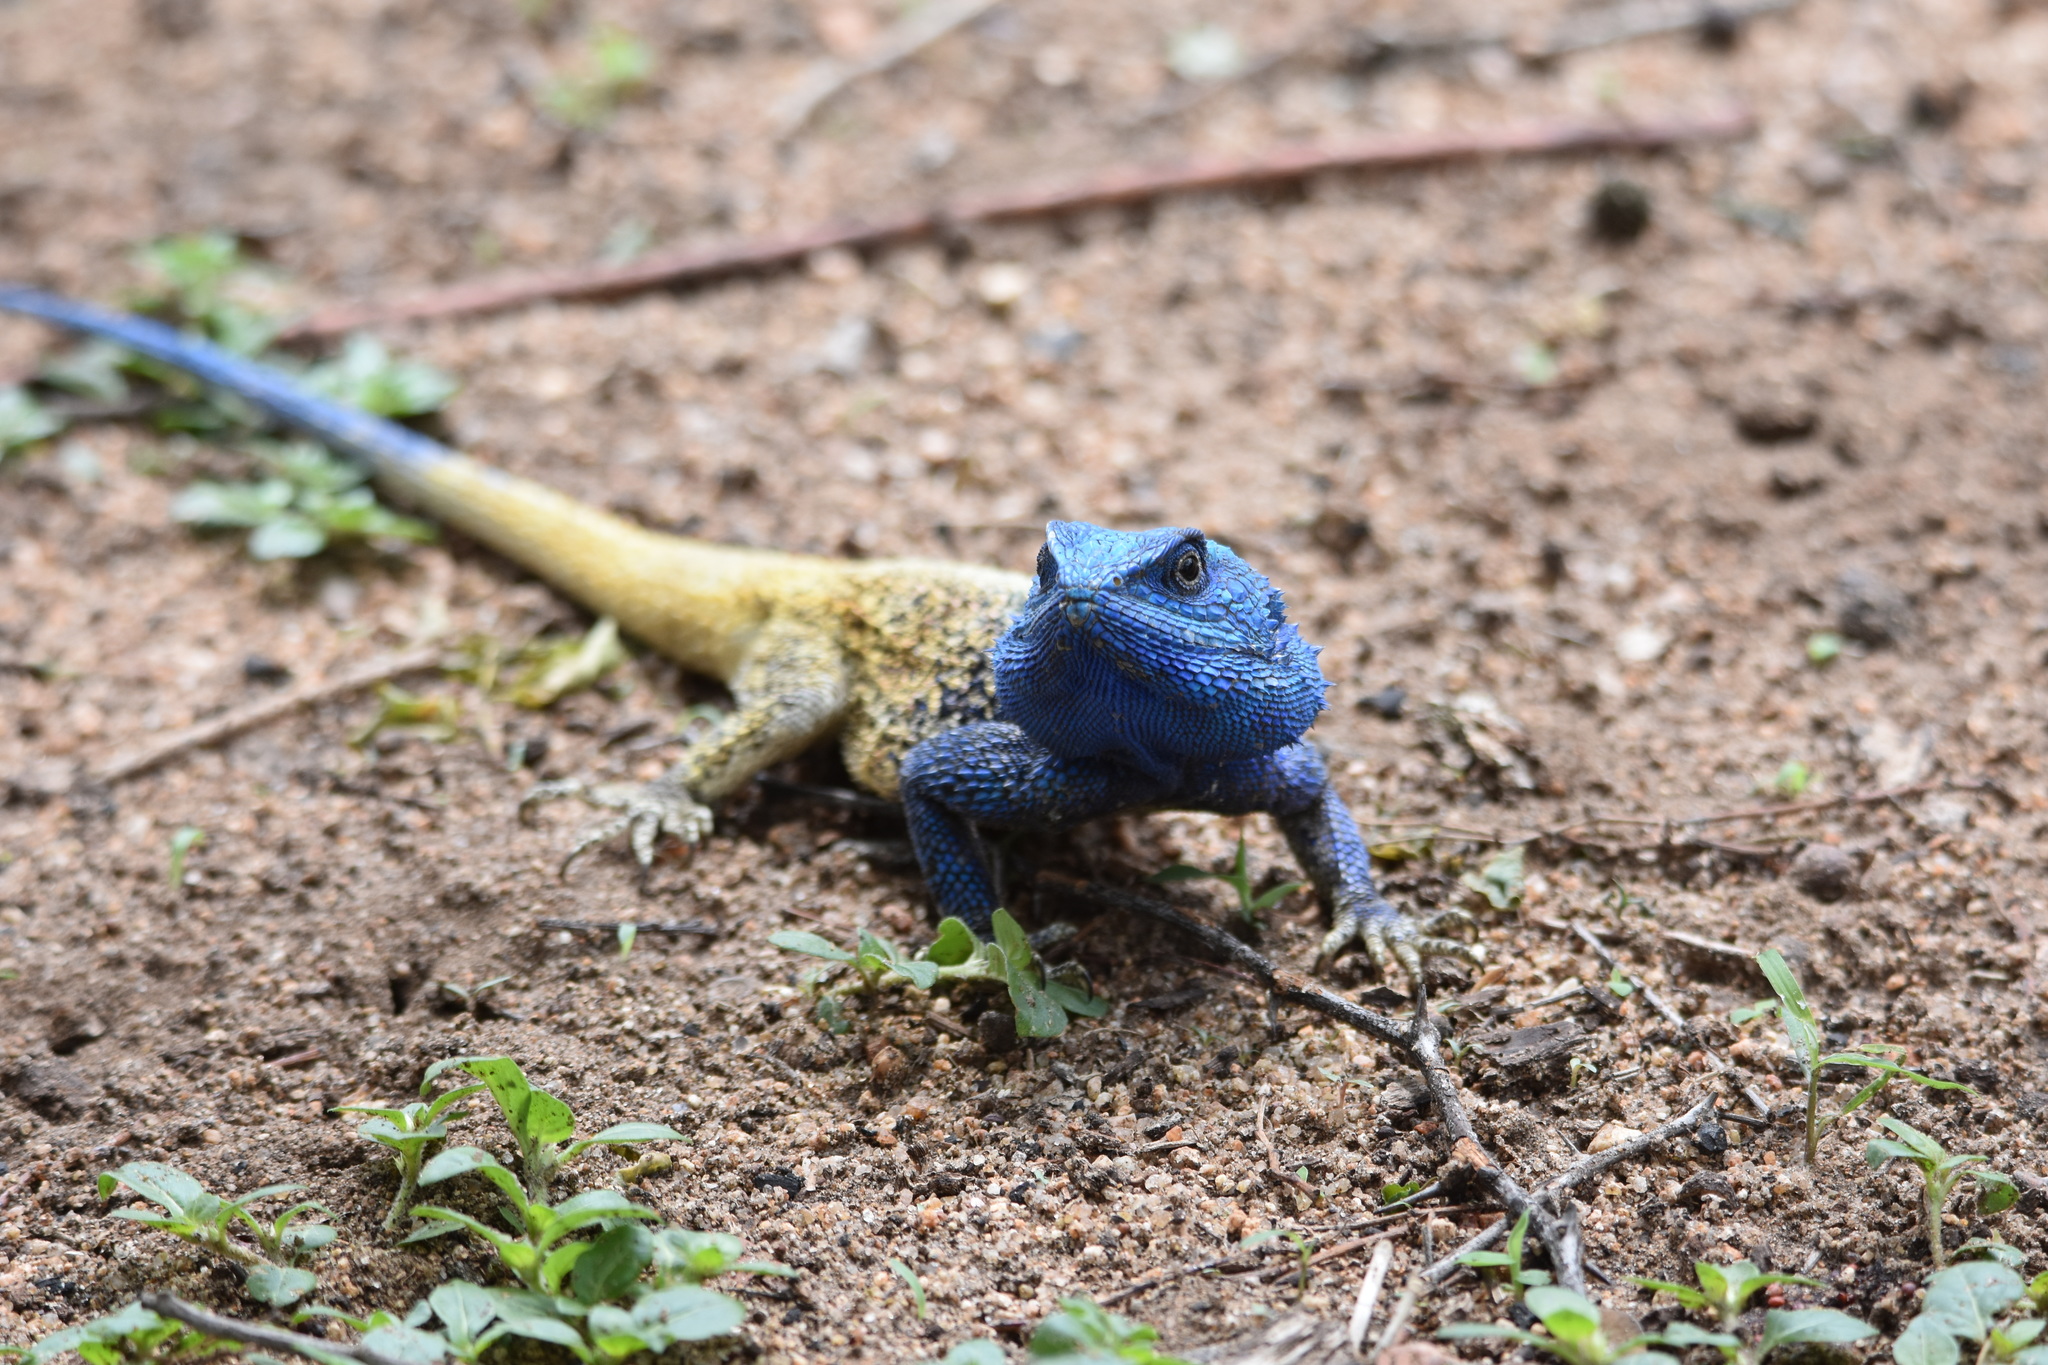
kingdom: Animalia
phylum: Chordata
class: Squamata
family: Agamidae
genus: Acanthocercus
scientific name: Acanthocercus atricollis
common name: Southern tree agama
